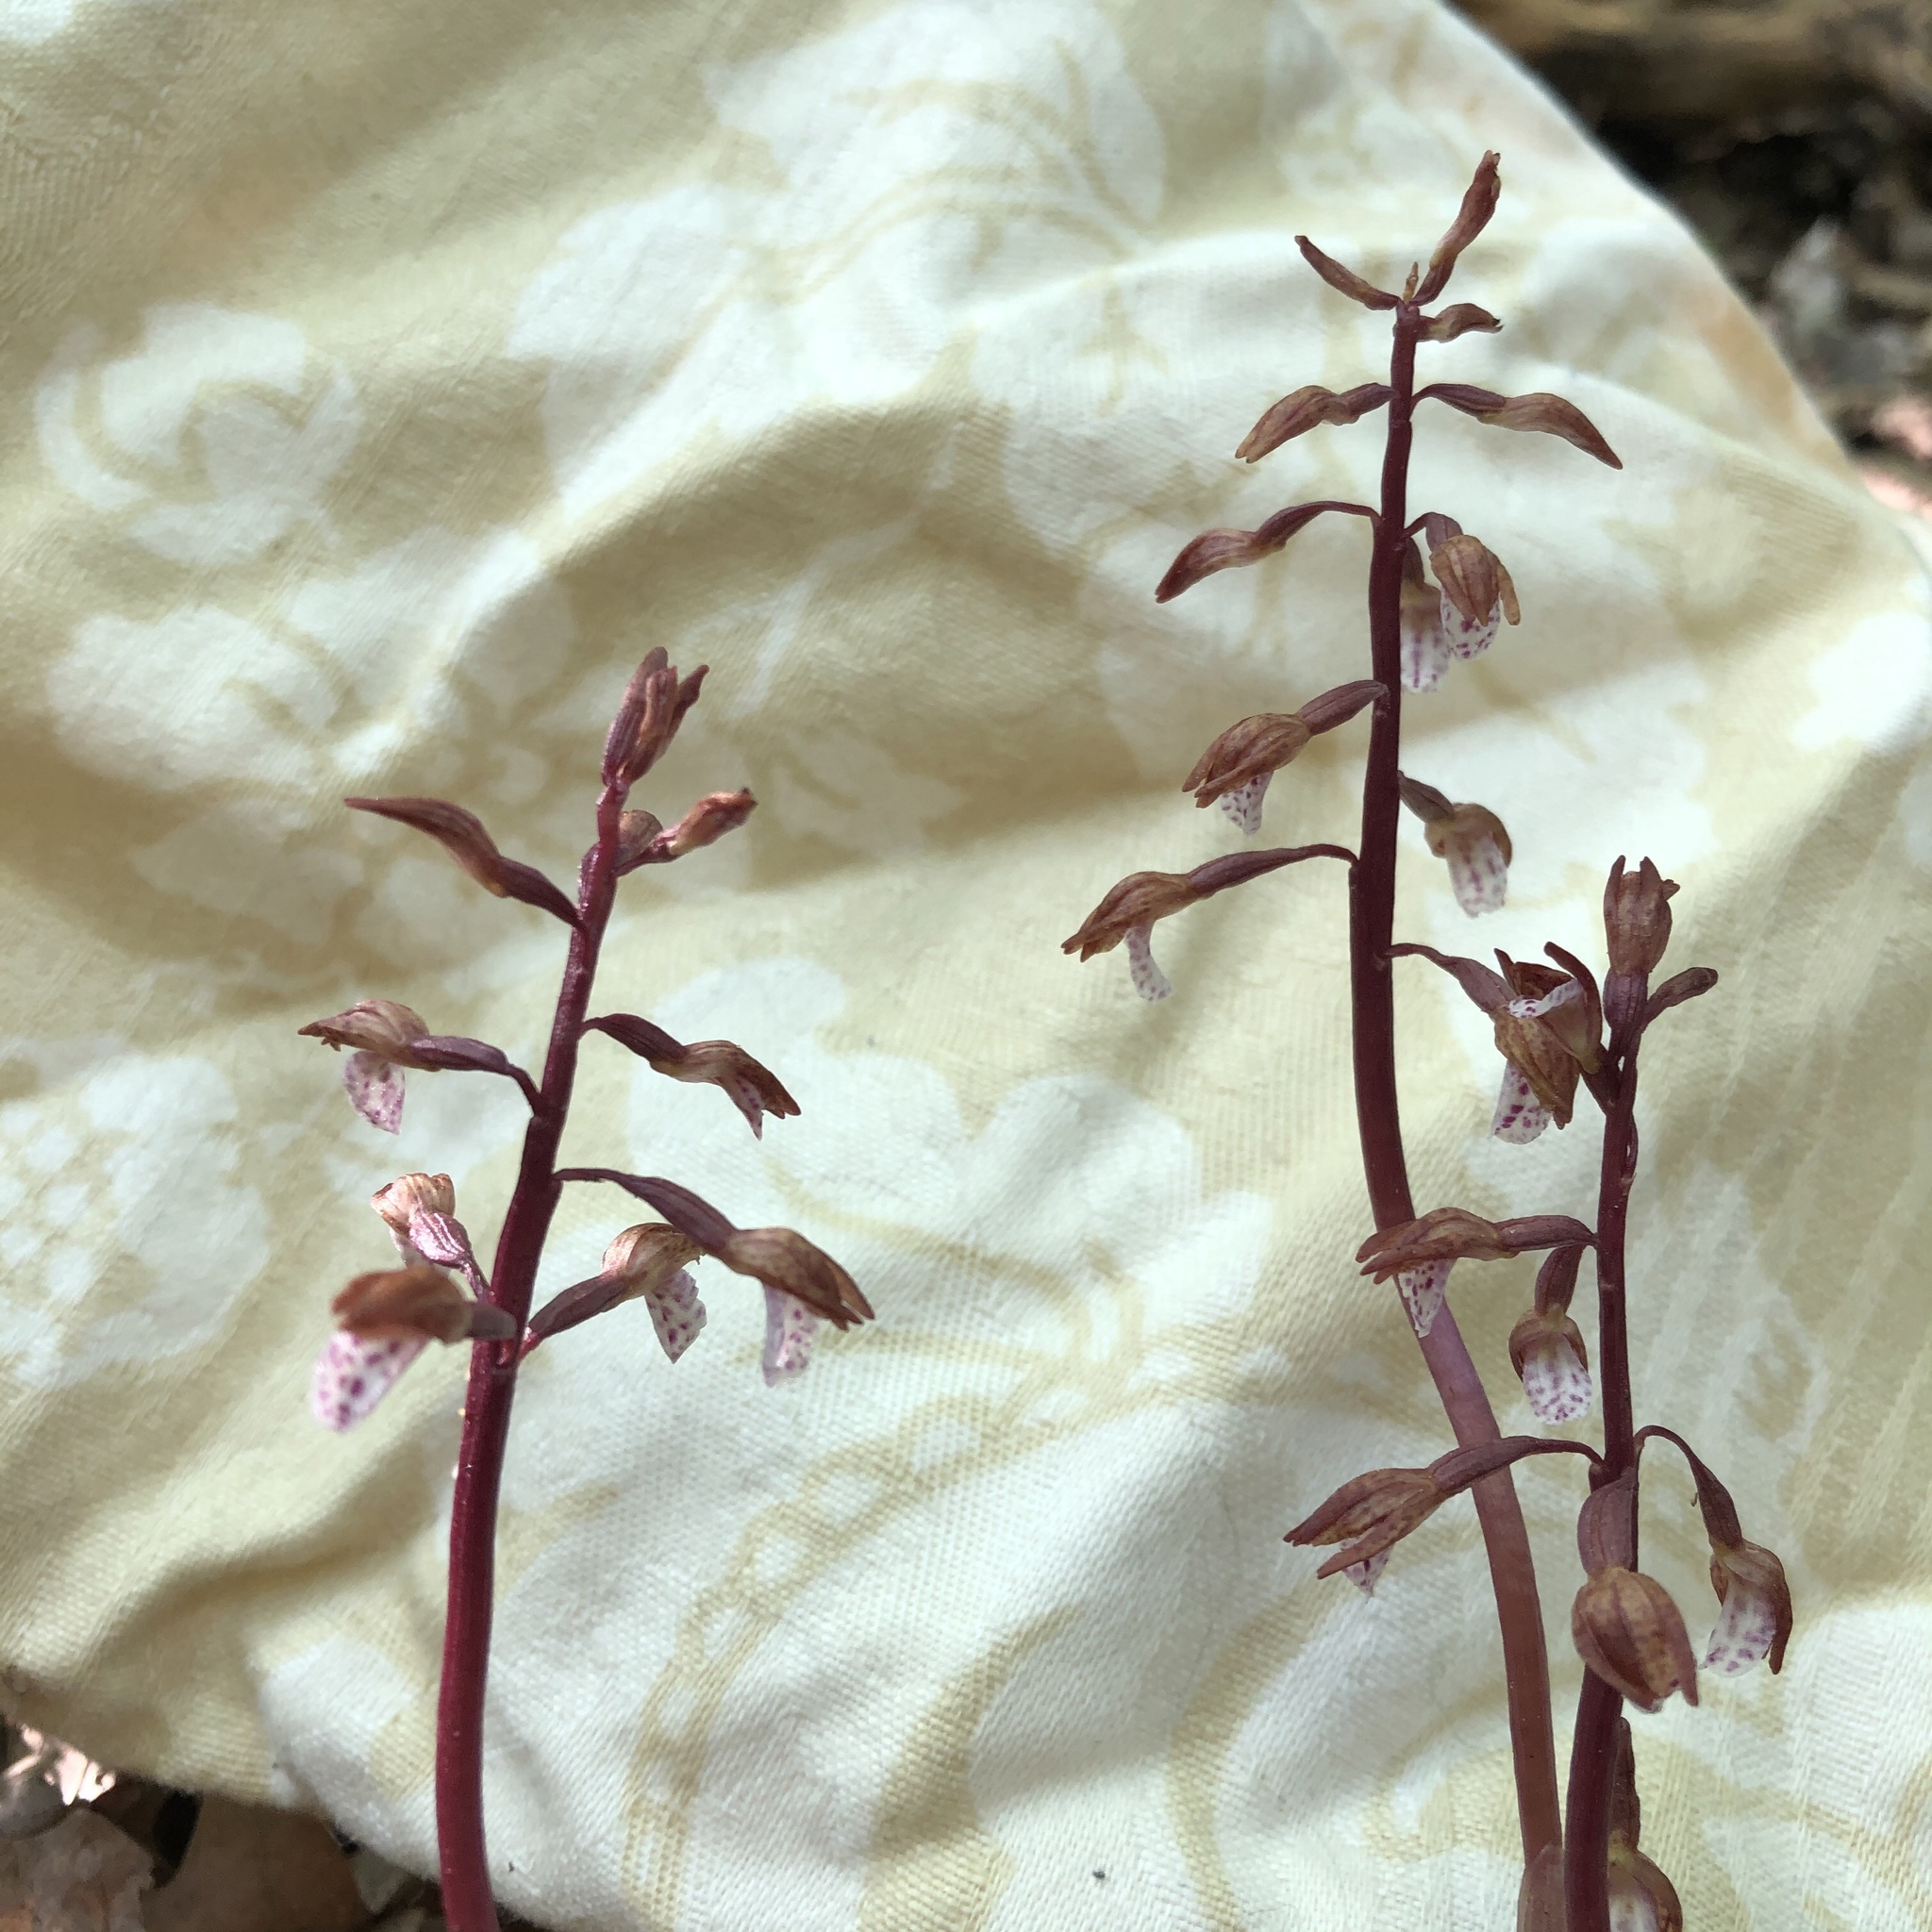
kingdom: Plantae
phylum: Tracheophyta
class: Liliopsida
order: Asparagales
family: Orchidaceae
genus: Corallorhiza
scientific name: Corallorhiza wisteriana
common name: Spring coralroot
